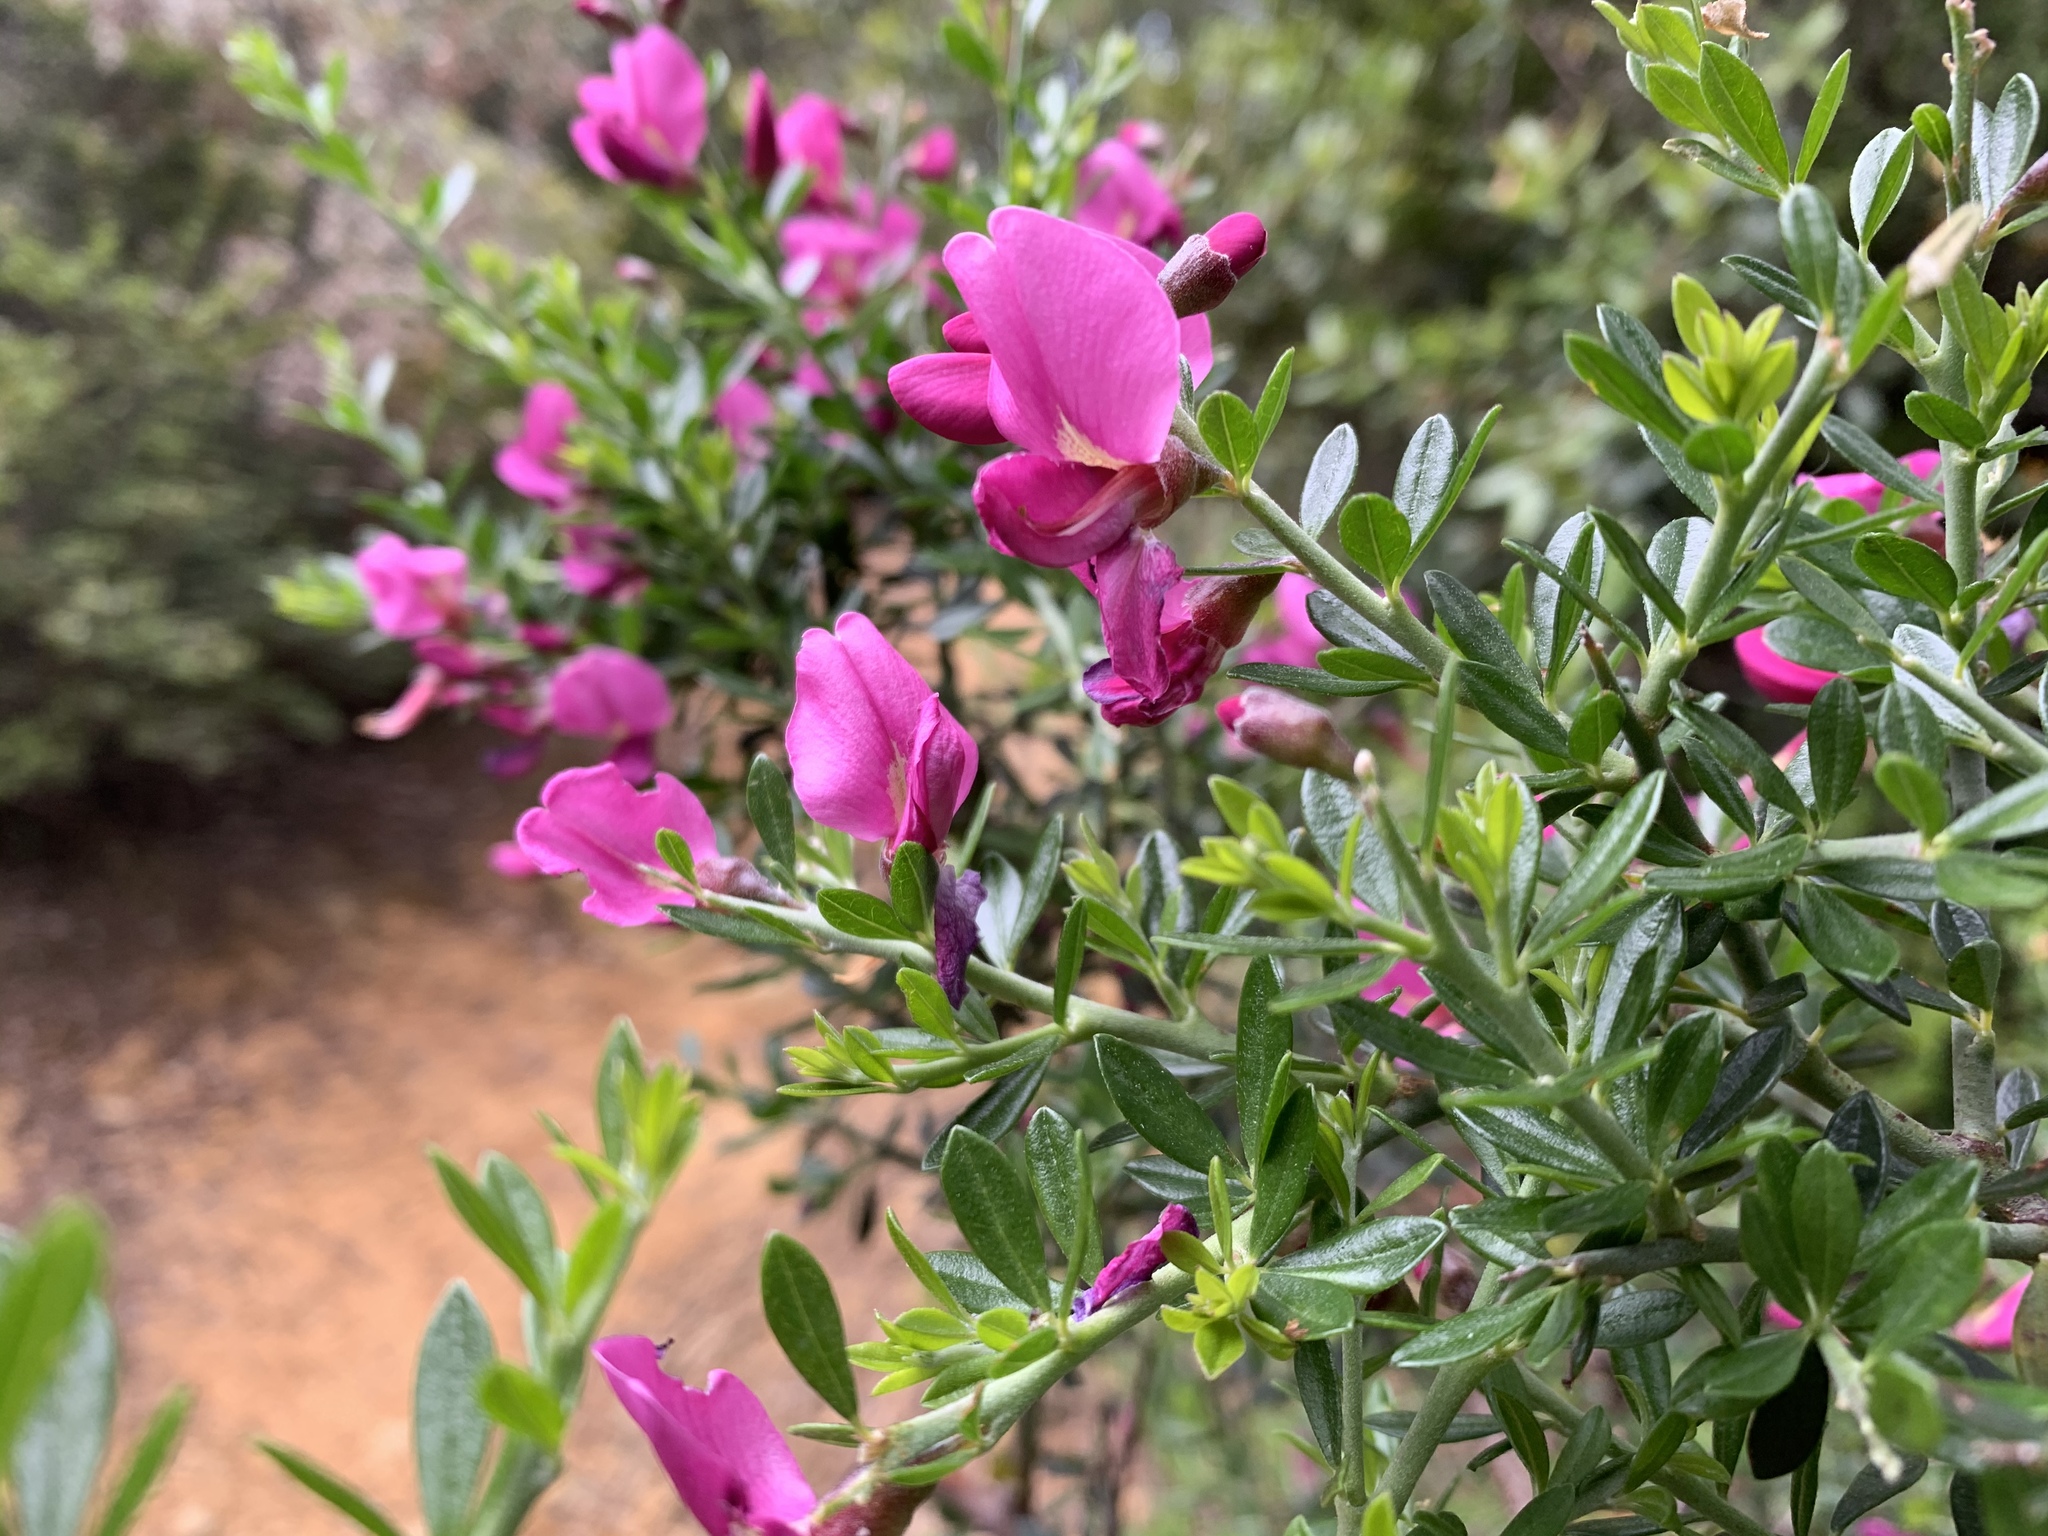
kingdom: Plantae
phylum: Tracheophyta
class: Magnoliopsida
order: Fabales
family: Fabaceae
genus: Pickeringia
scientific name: Pickeringia montana
